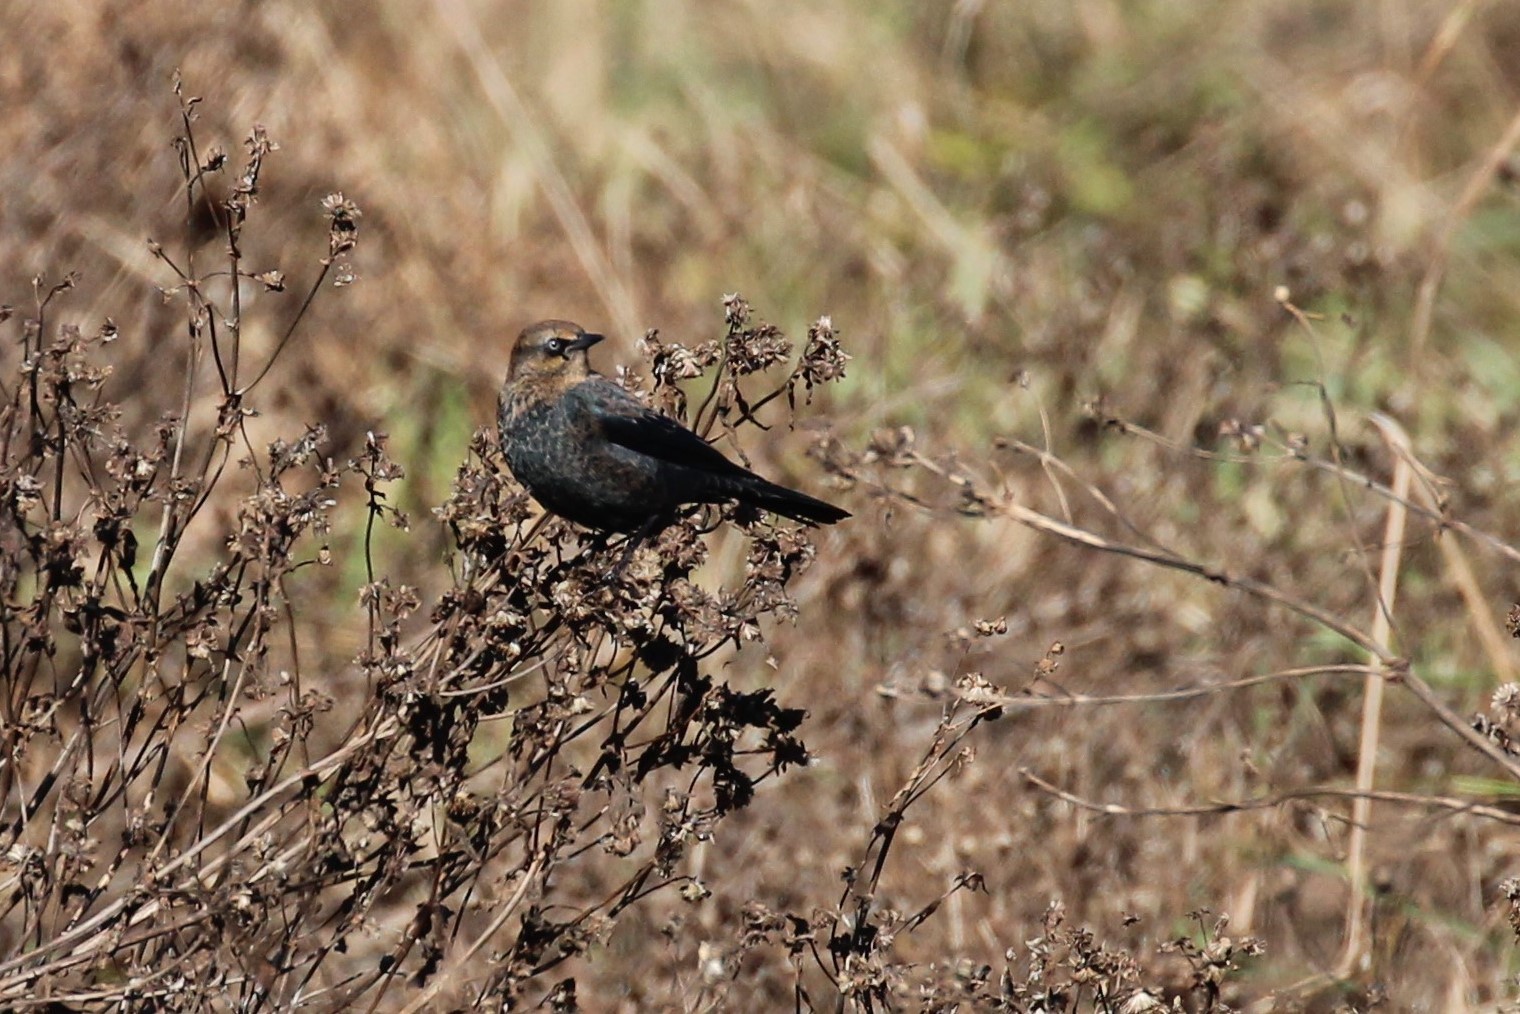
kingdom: Animalia
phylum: Chordata
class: Aves
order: Passeriformes
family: Icteridae
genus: Euphagus
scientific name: Euphagus carolinus
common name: Rusty blackbird
